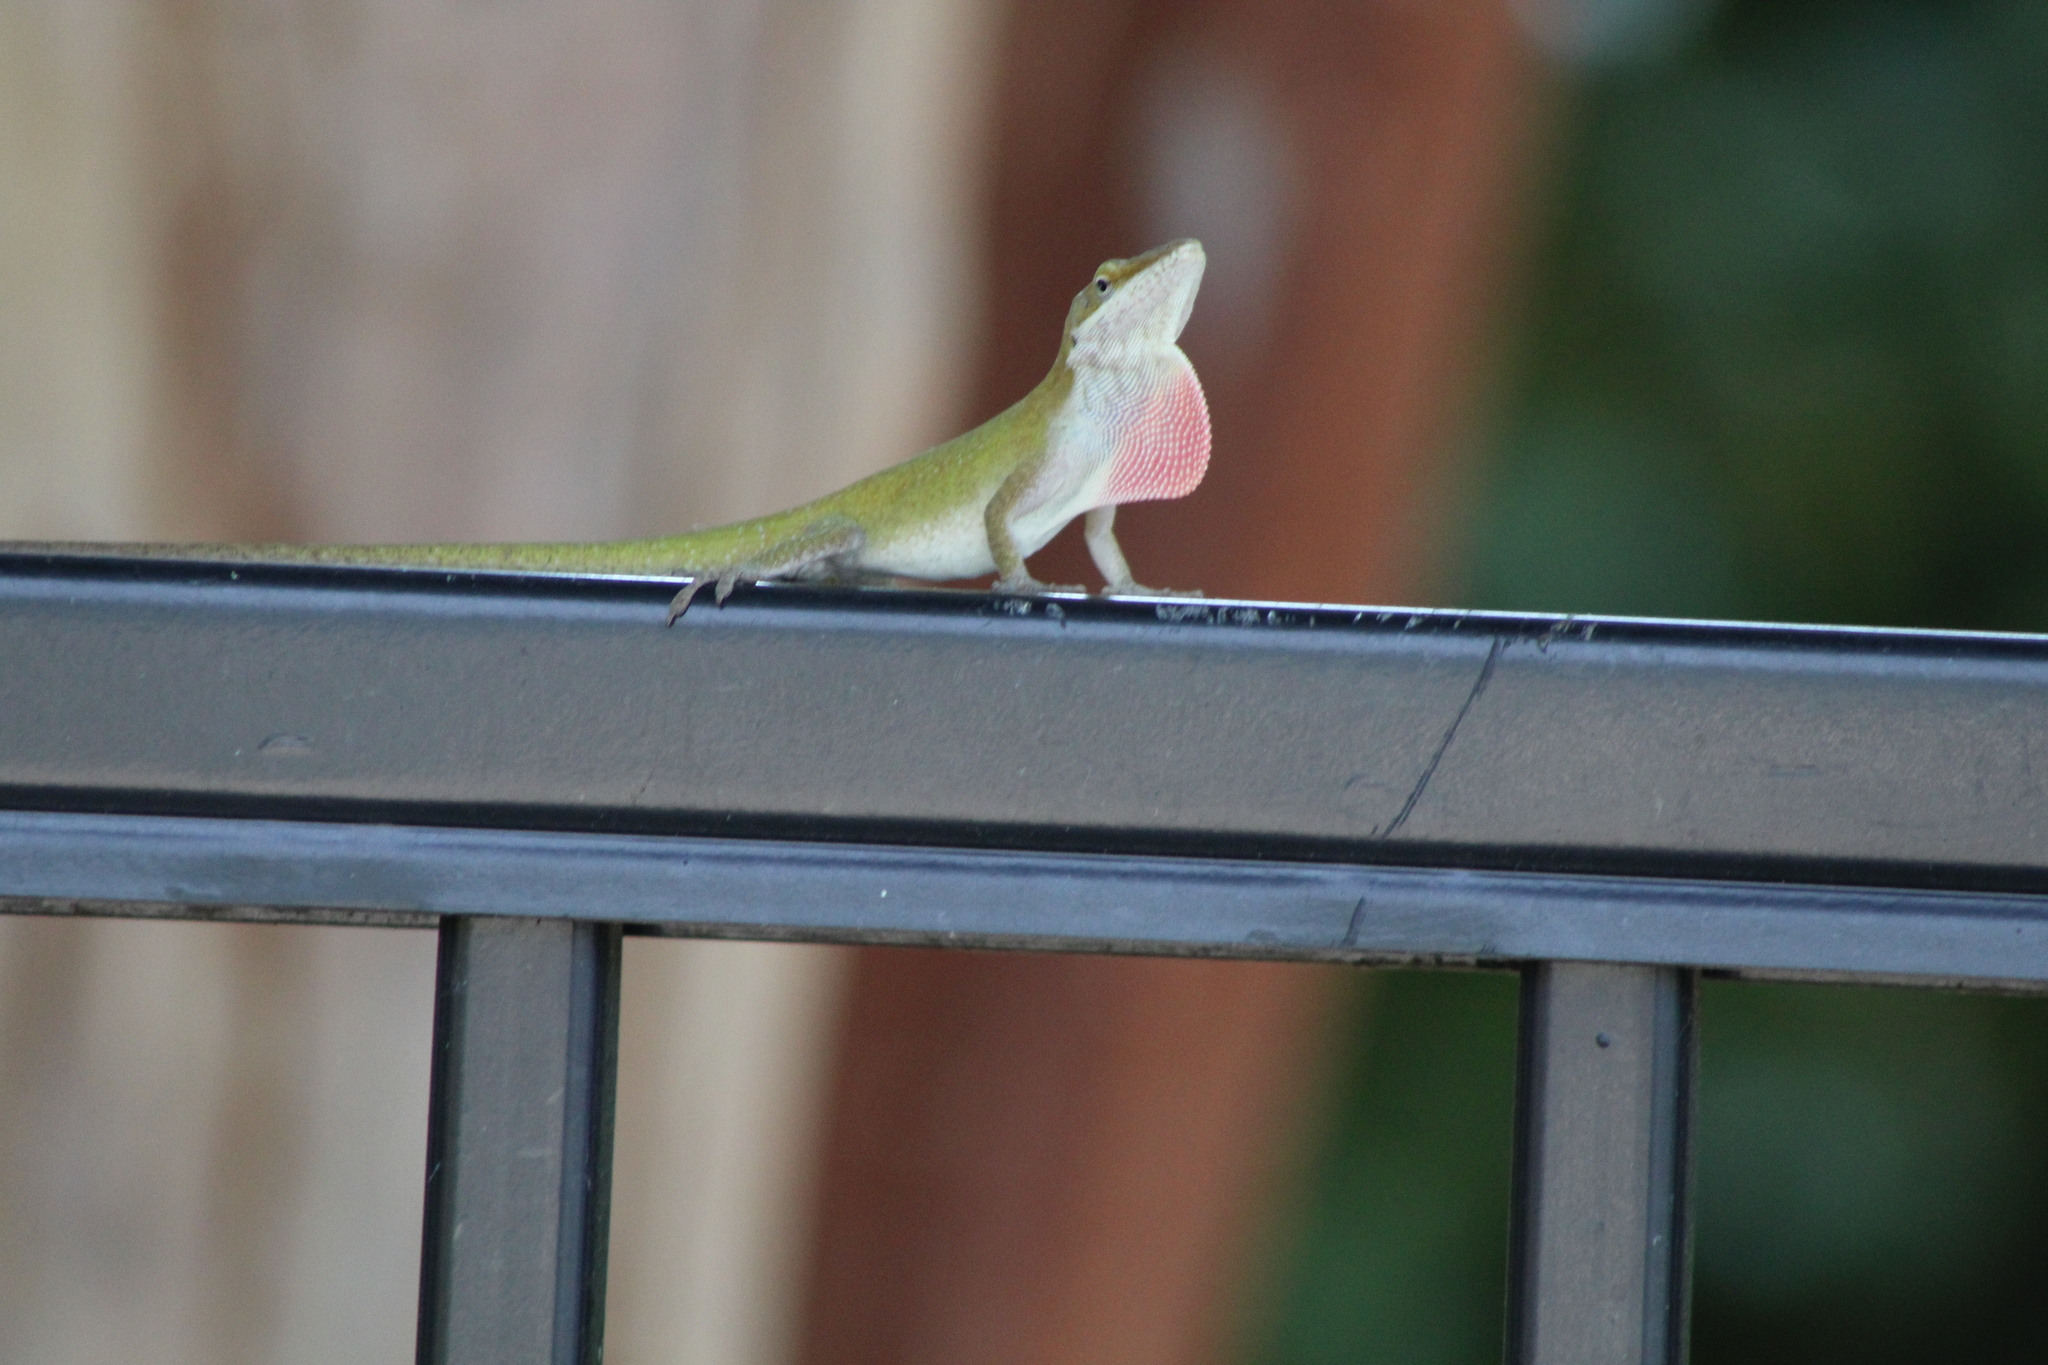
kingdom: Animalia
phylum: Chordata
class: Squamata
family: Dactyloidae
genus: Anolis
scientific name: Anolis carolinensis
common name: Green anole
